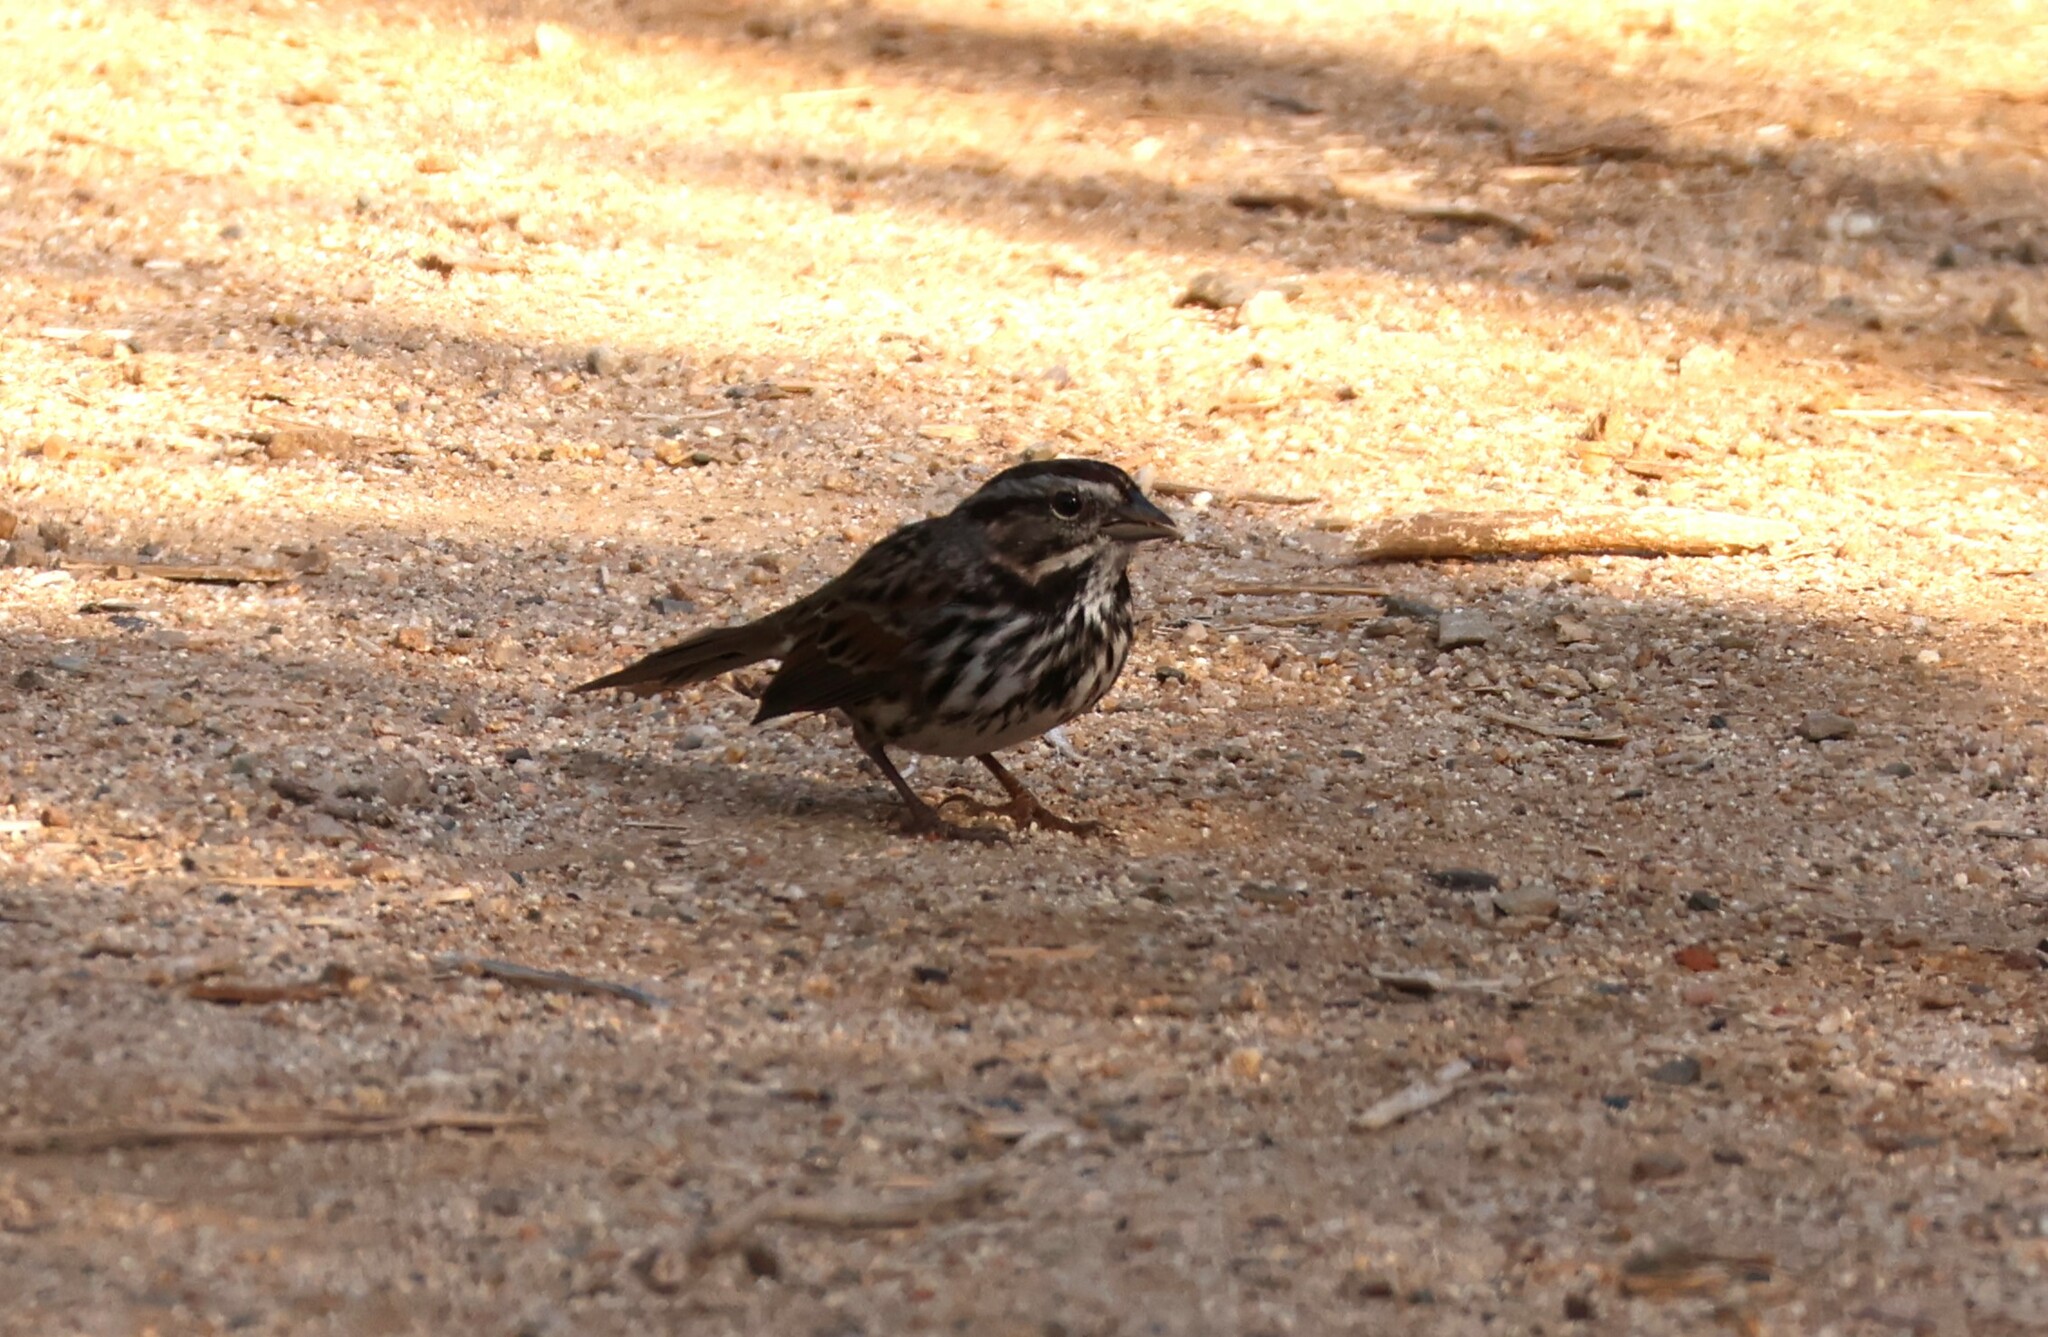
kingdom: Animalia
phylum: Chordata
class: Aves
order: Passeriformes
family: Passerellidae
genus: Melospiza
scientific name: Melospiza melodia
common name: Song sparrow
